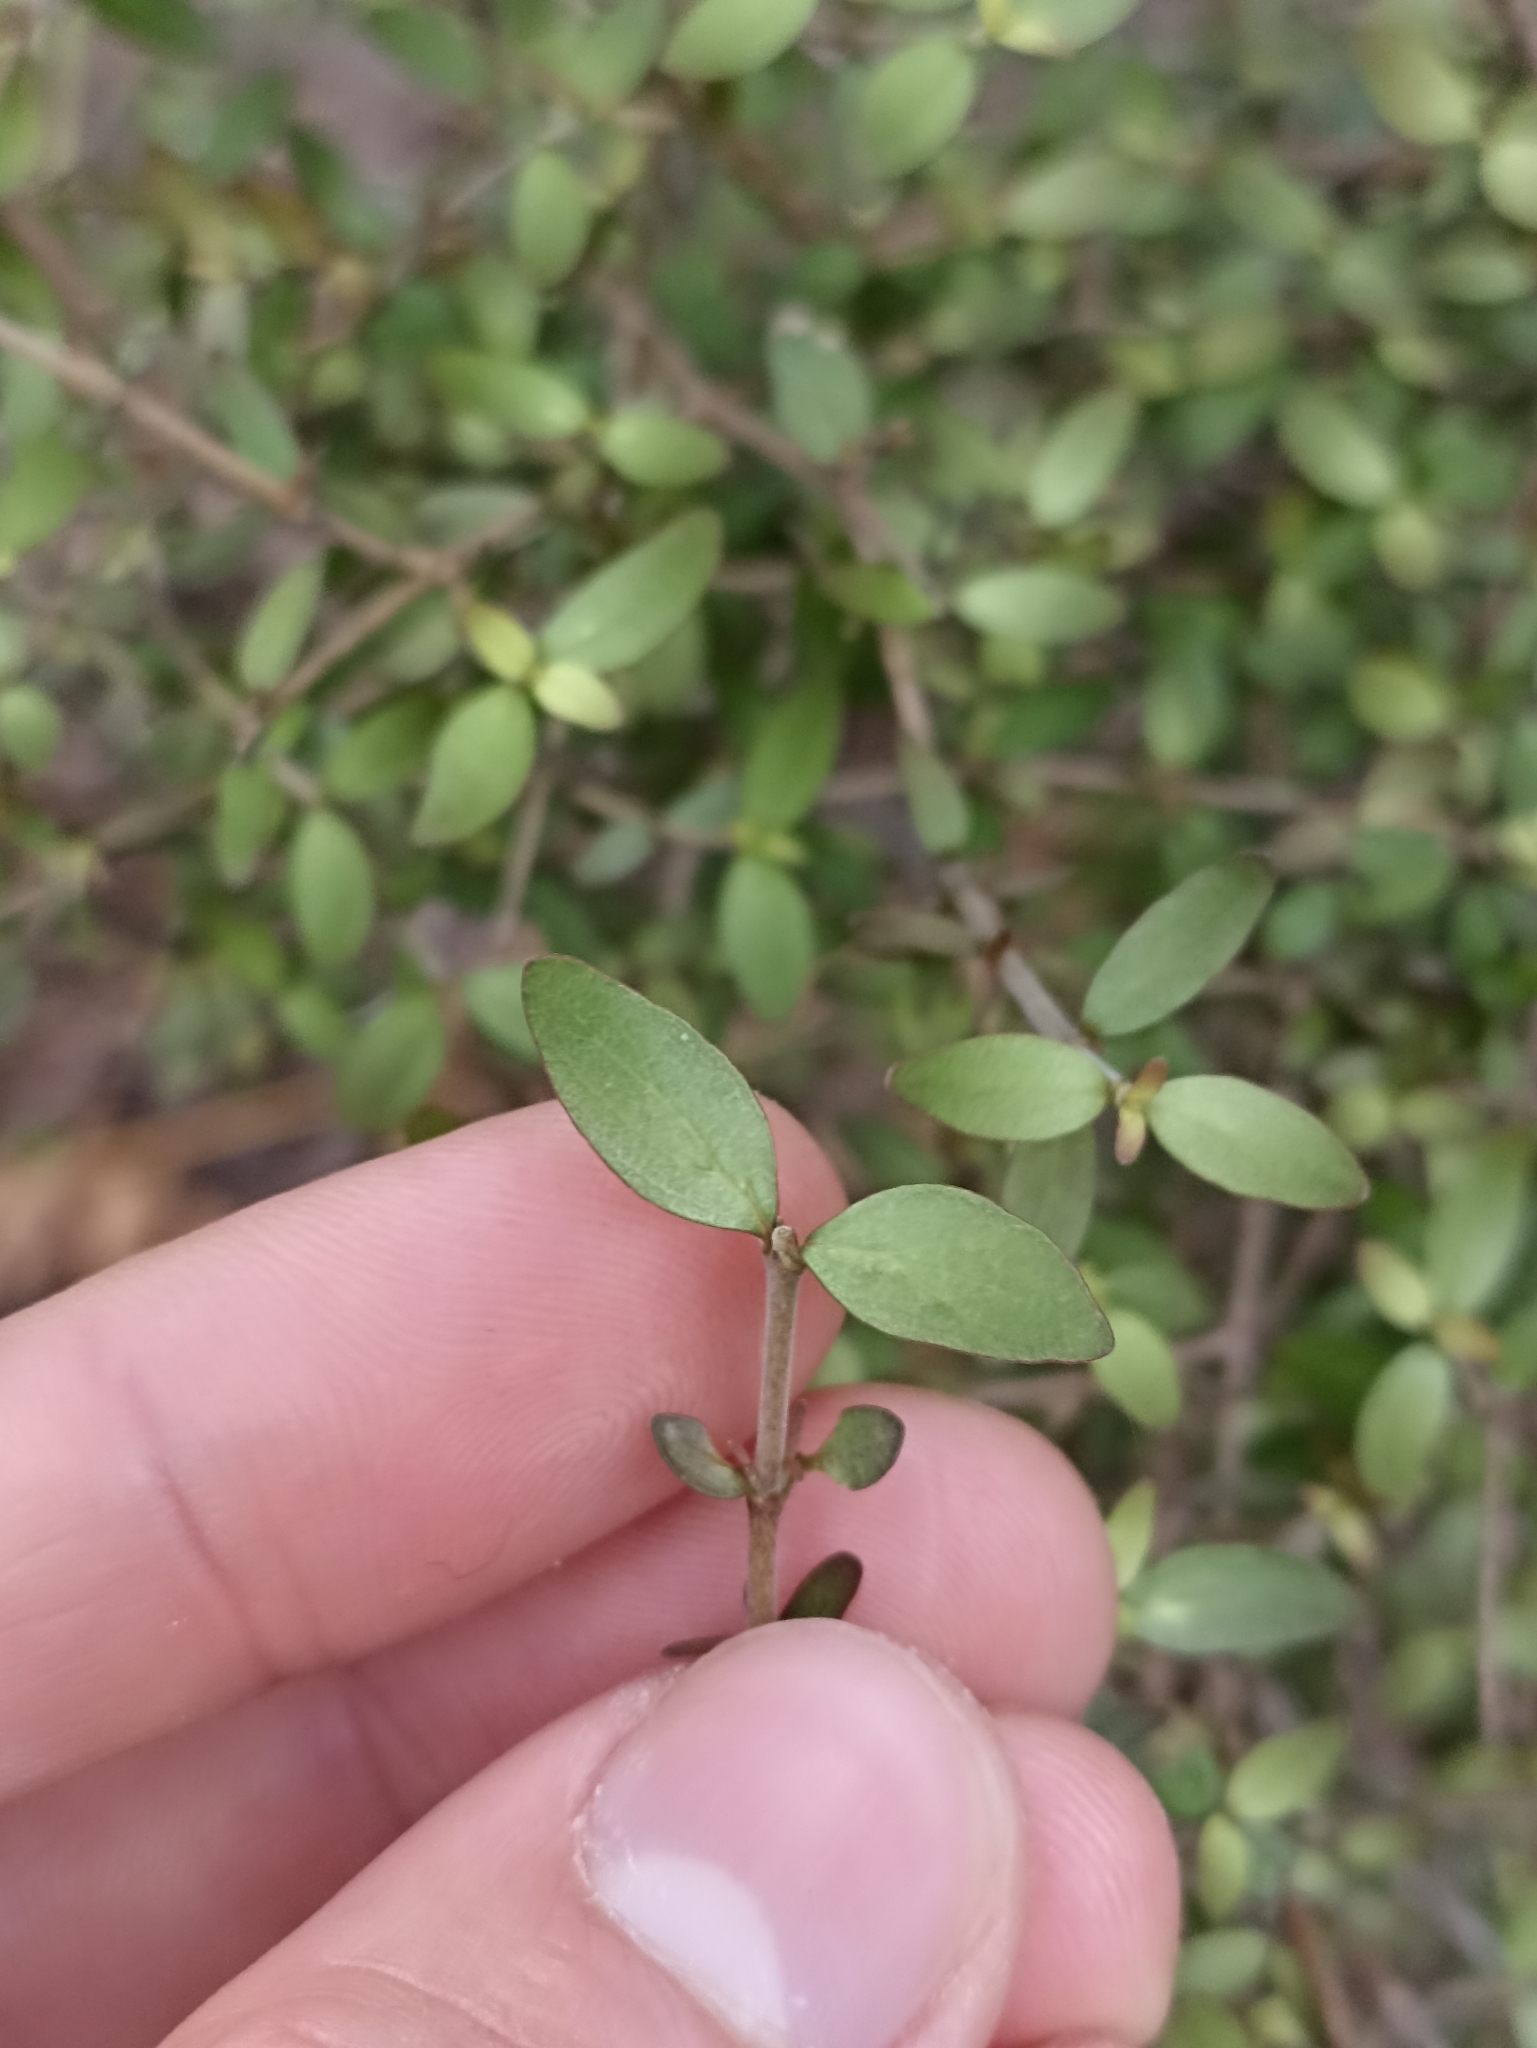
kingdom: Plantae
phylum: Tracheophyta
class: Magnoliopsida
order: Gentianales
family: Rubiaceae
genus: Coprosma
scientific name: Coprosma rhamnoides
